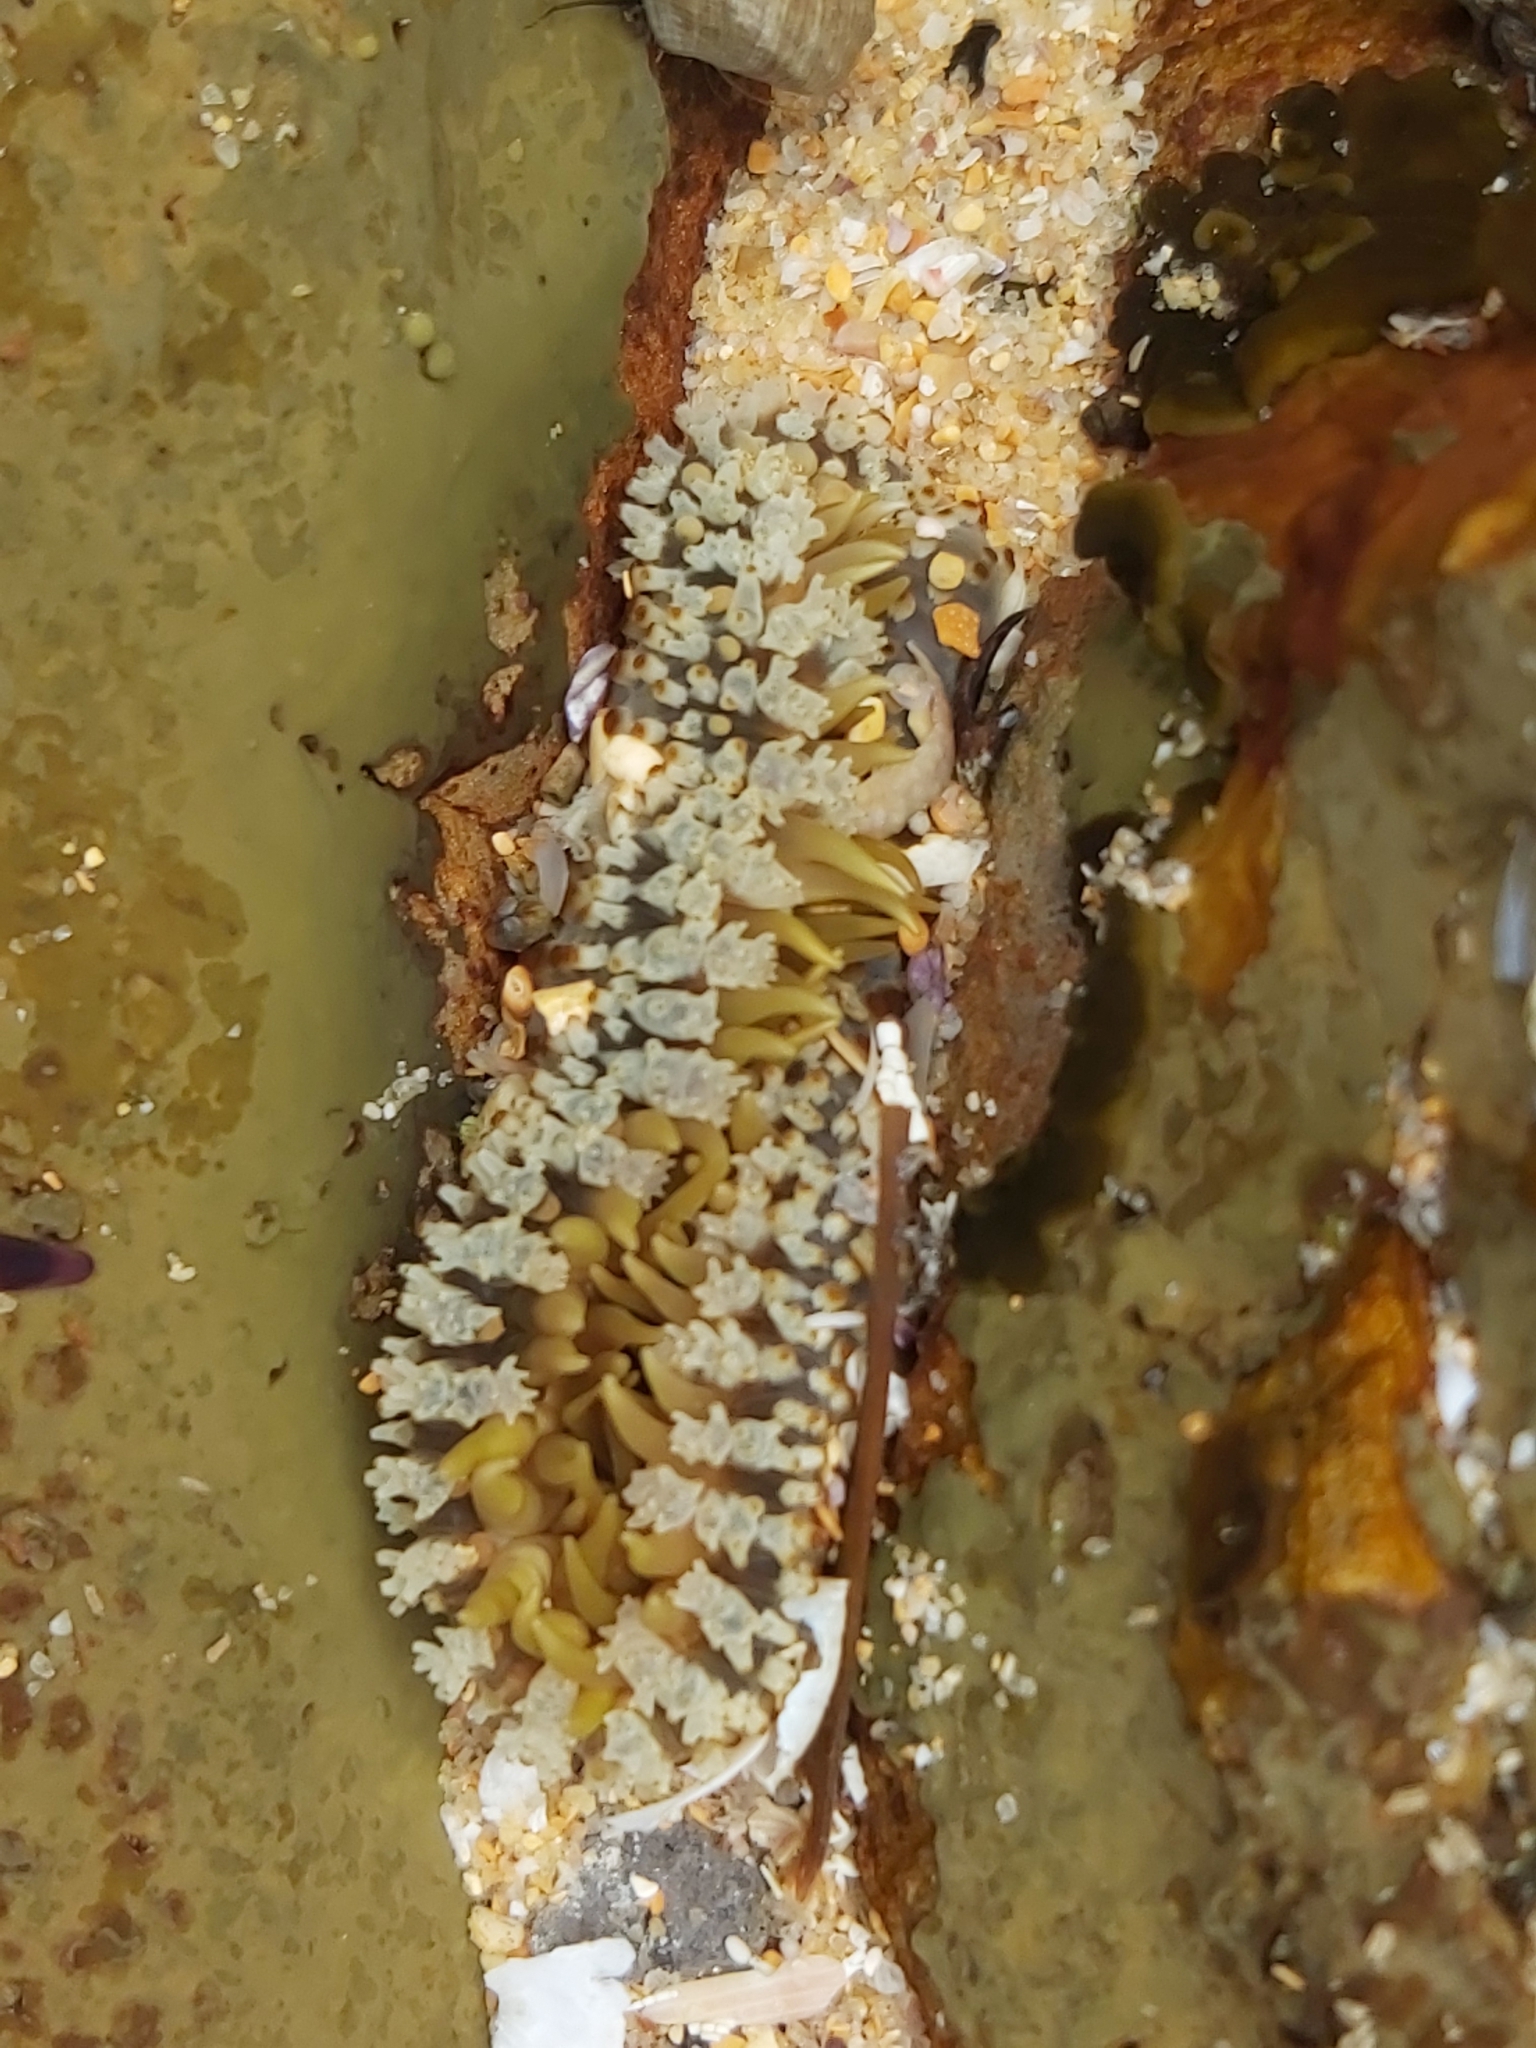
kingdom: Animalia
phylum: Cnidaria
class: Anthozoa
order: Actiniaria
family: Actiniidae
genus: Oulactis
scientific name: Oulactis muscosa
